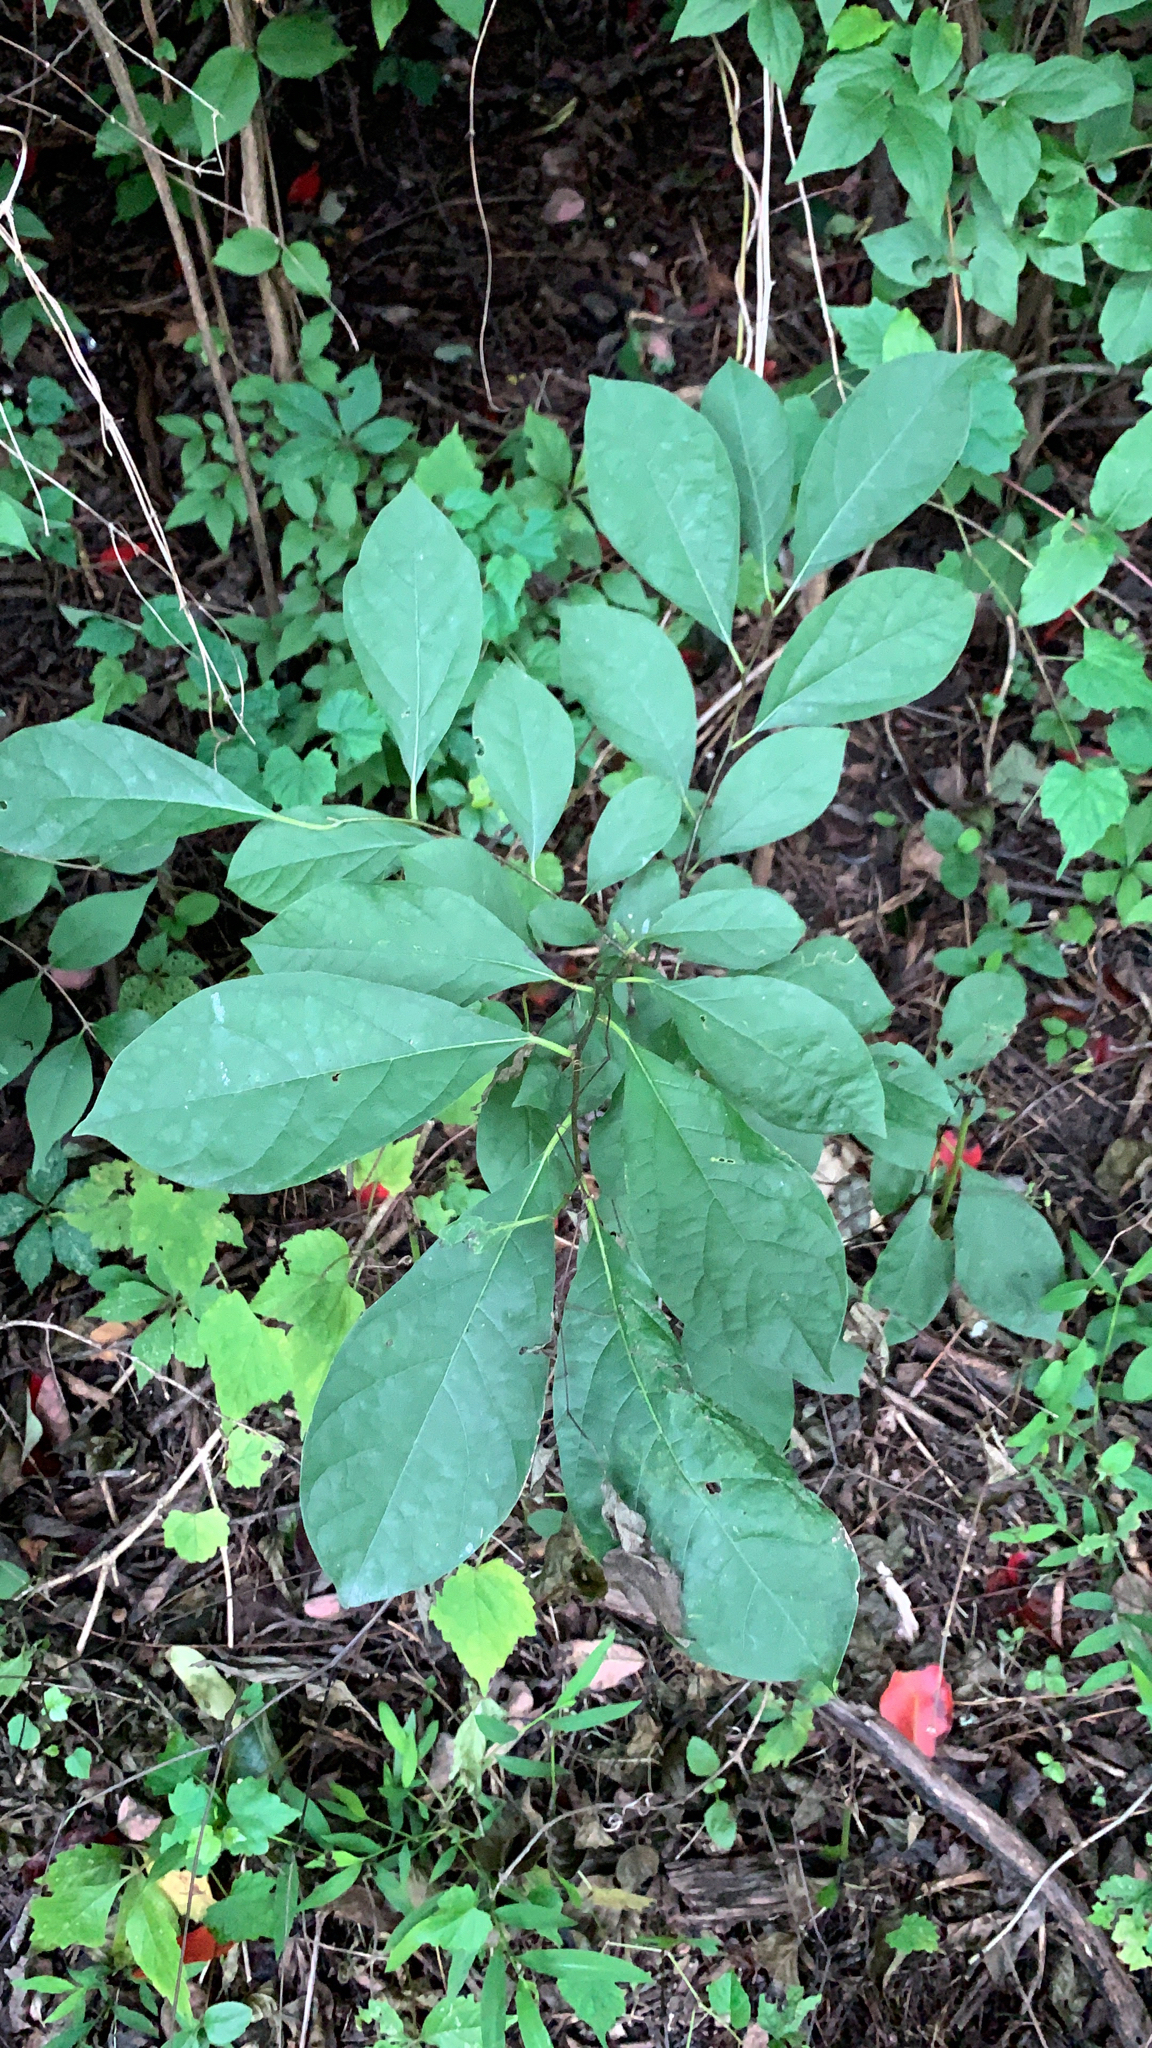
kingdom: Plantae
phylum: Tracheophyta
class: Magnoliopsida
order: Laurales
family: Lauraceae
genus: Lindera
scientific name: Lindera benzoin
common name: Spicebush
